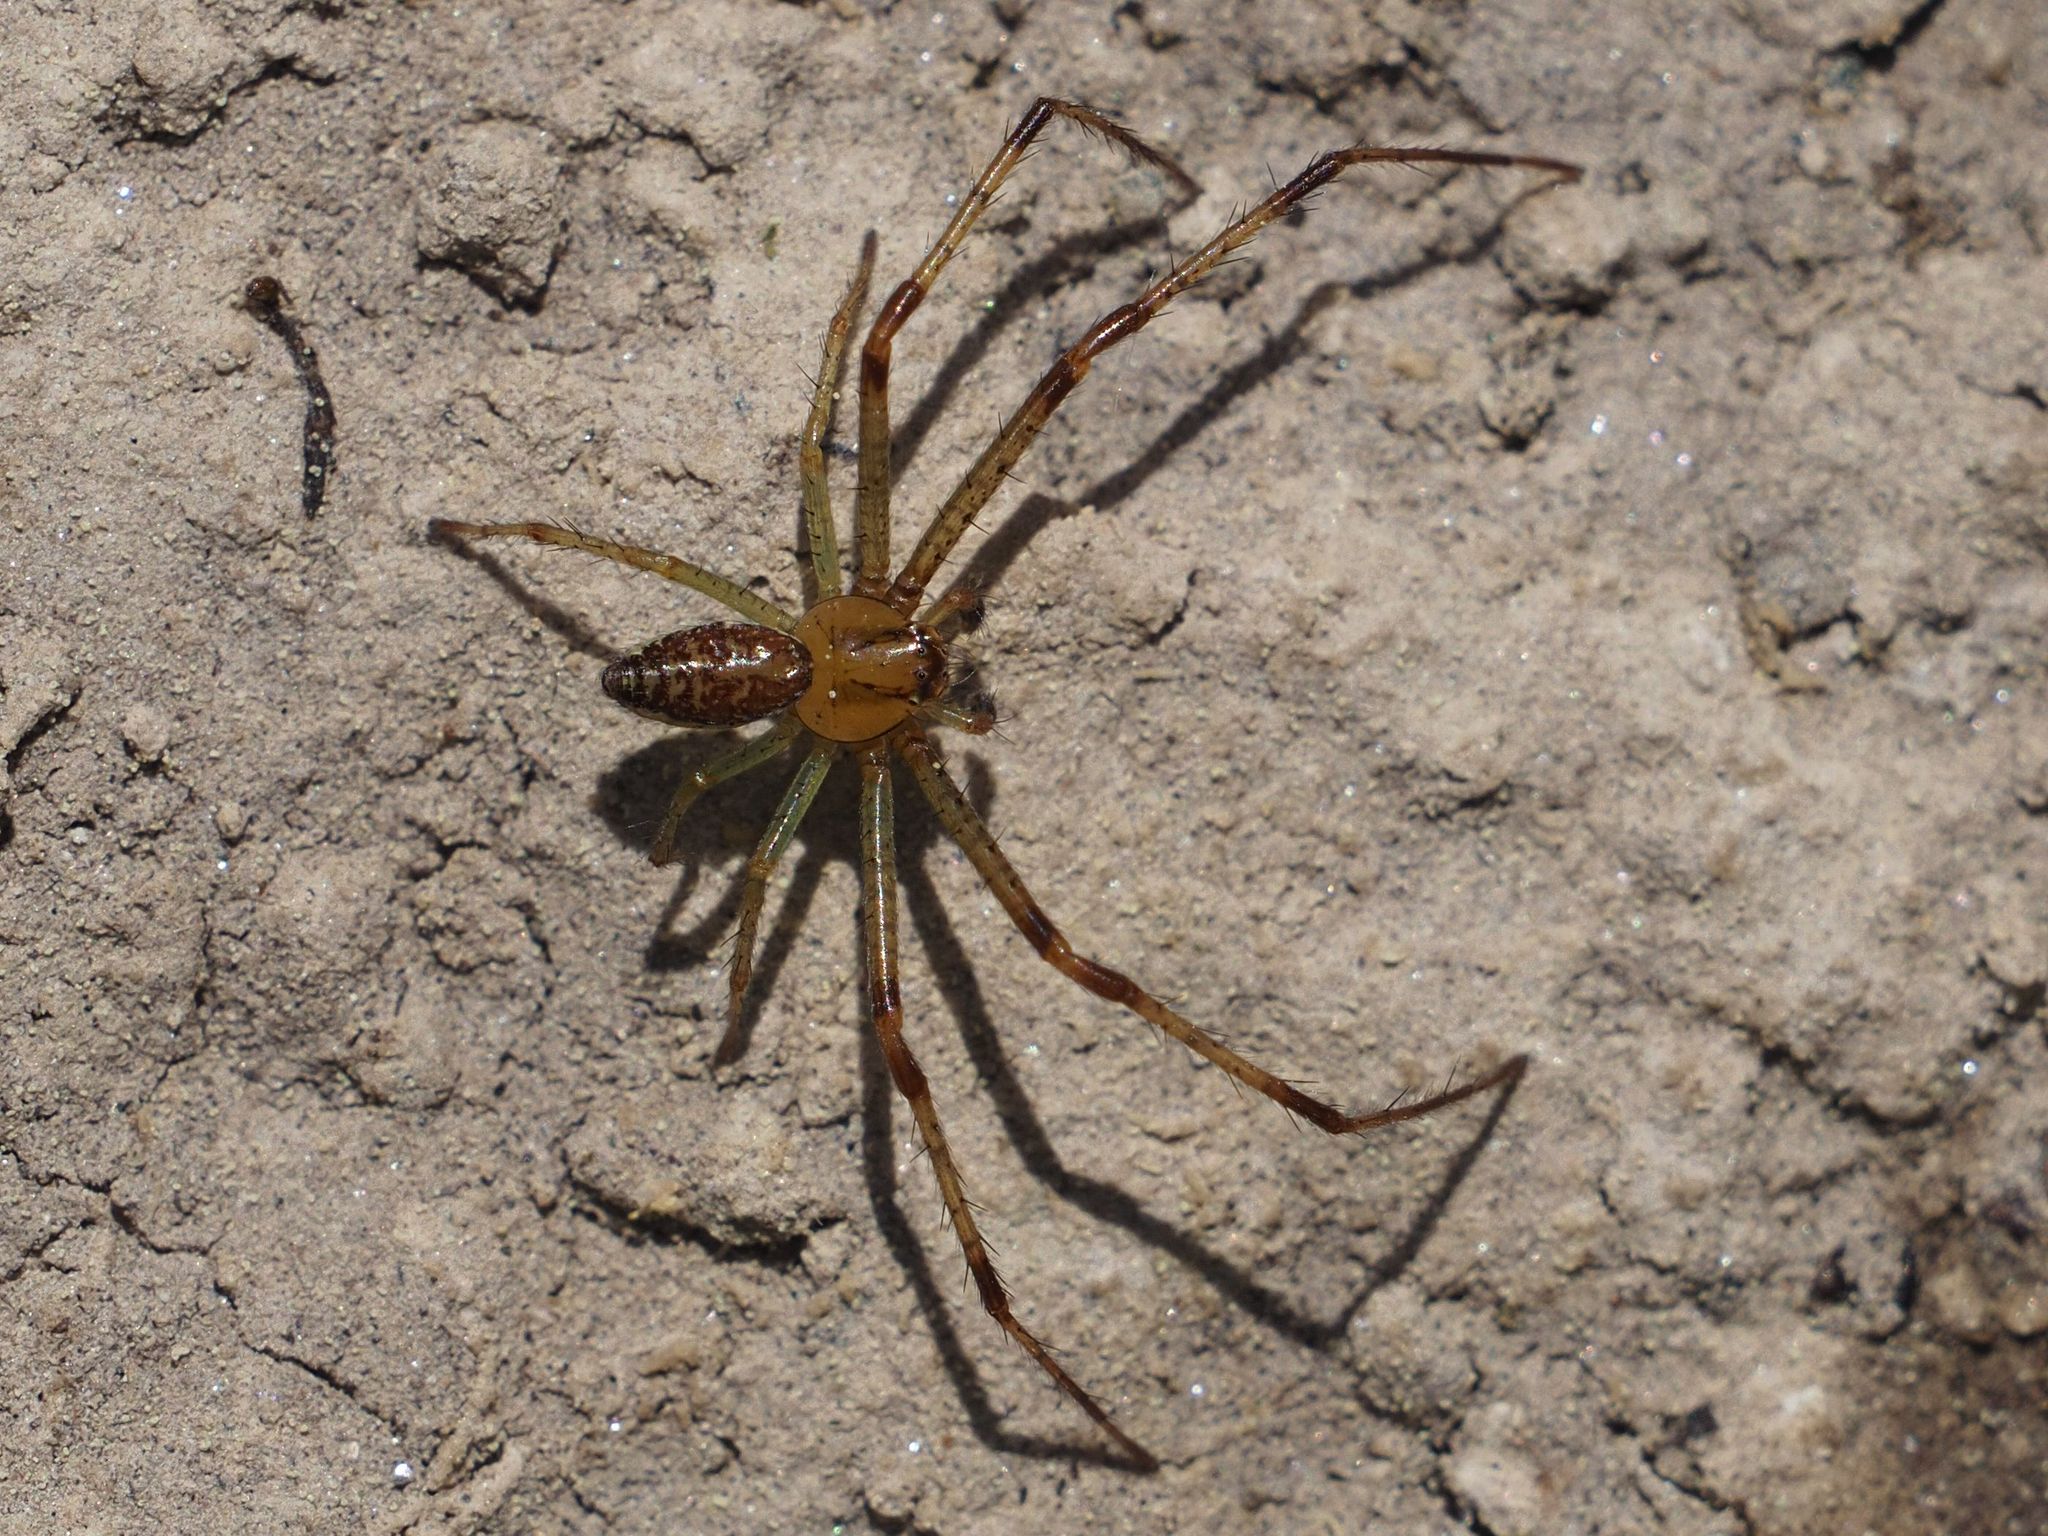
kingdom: Animalia
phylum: Arthropoda
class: Arachnida
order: Araneae
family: Thomisidae
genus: Diaea
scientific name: Diaea dorsata
